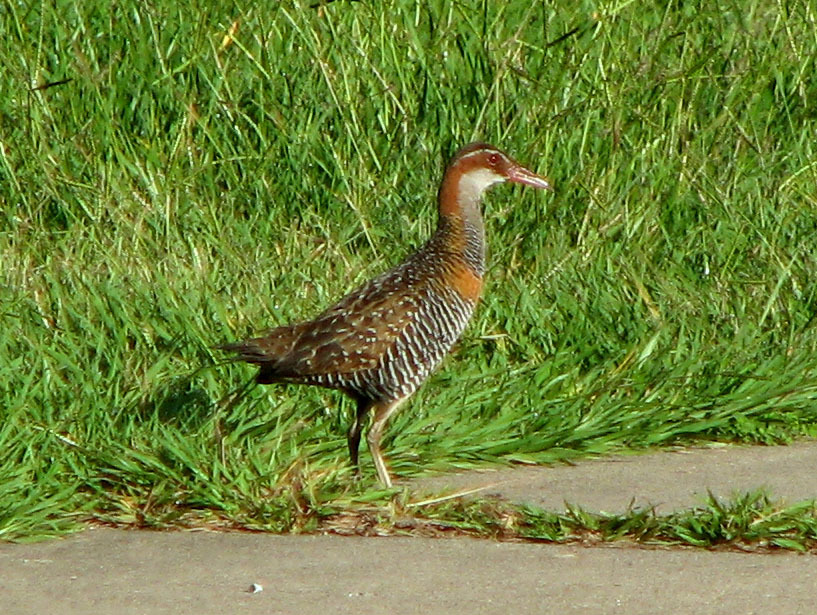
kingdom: Animalia
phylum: Chordata
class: Aves
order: Gruiformes
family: Rallidae
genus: Gallirallus
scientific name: Gallirallus philippensis
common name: Buff-banded rail
